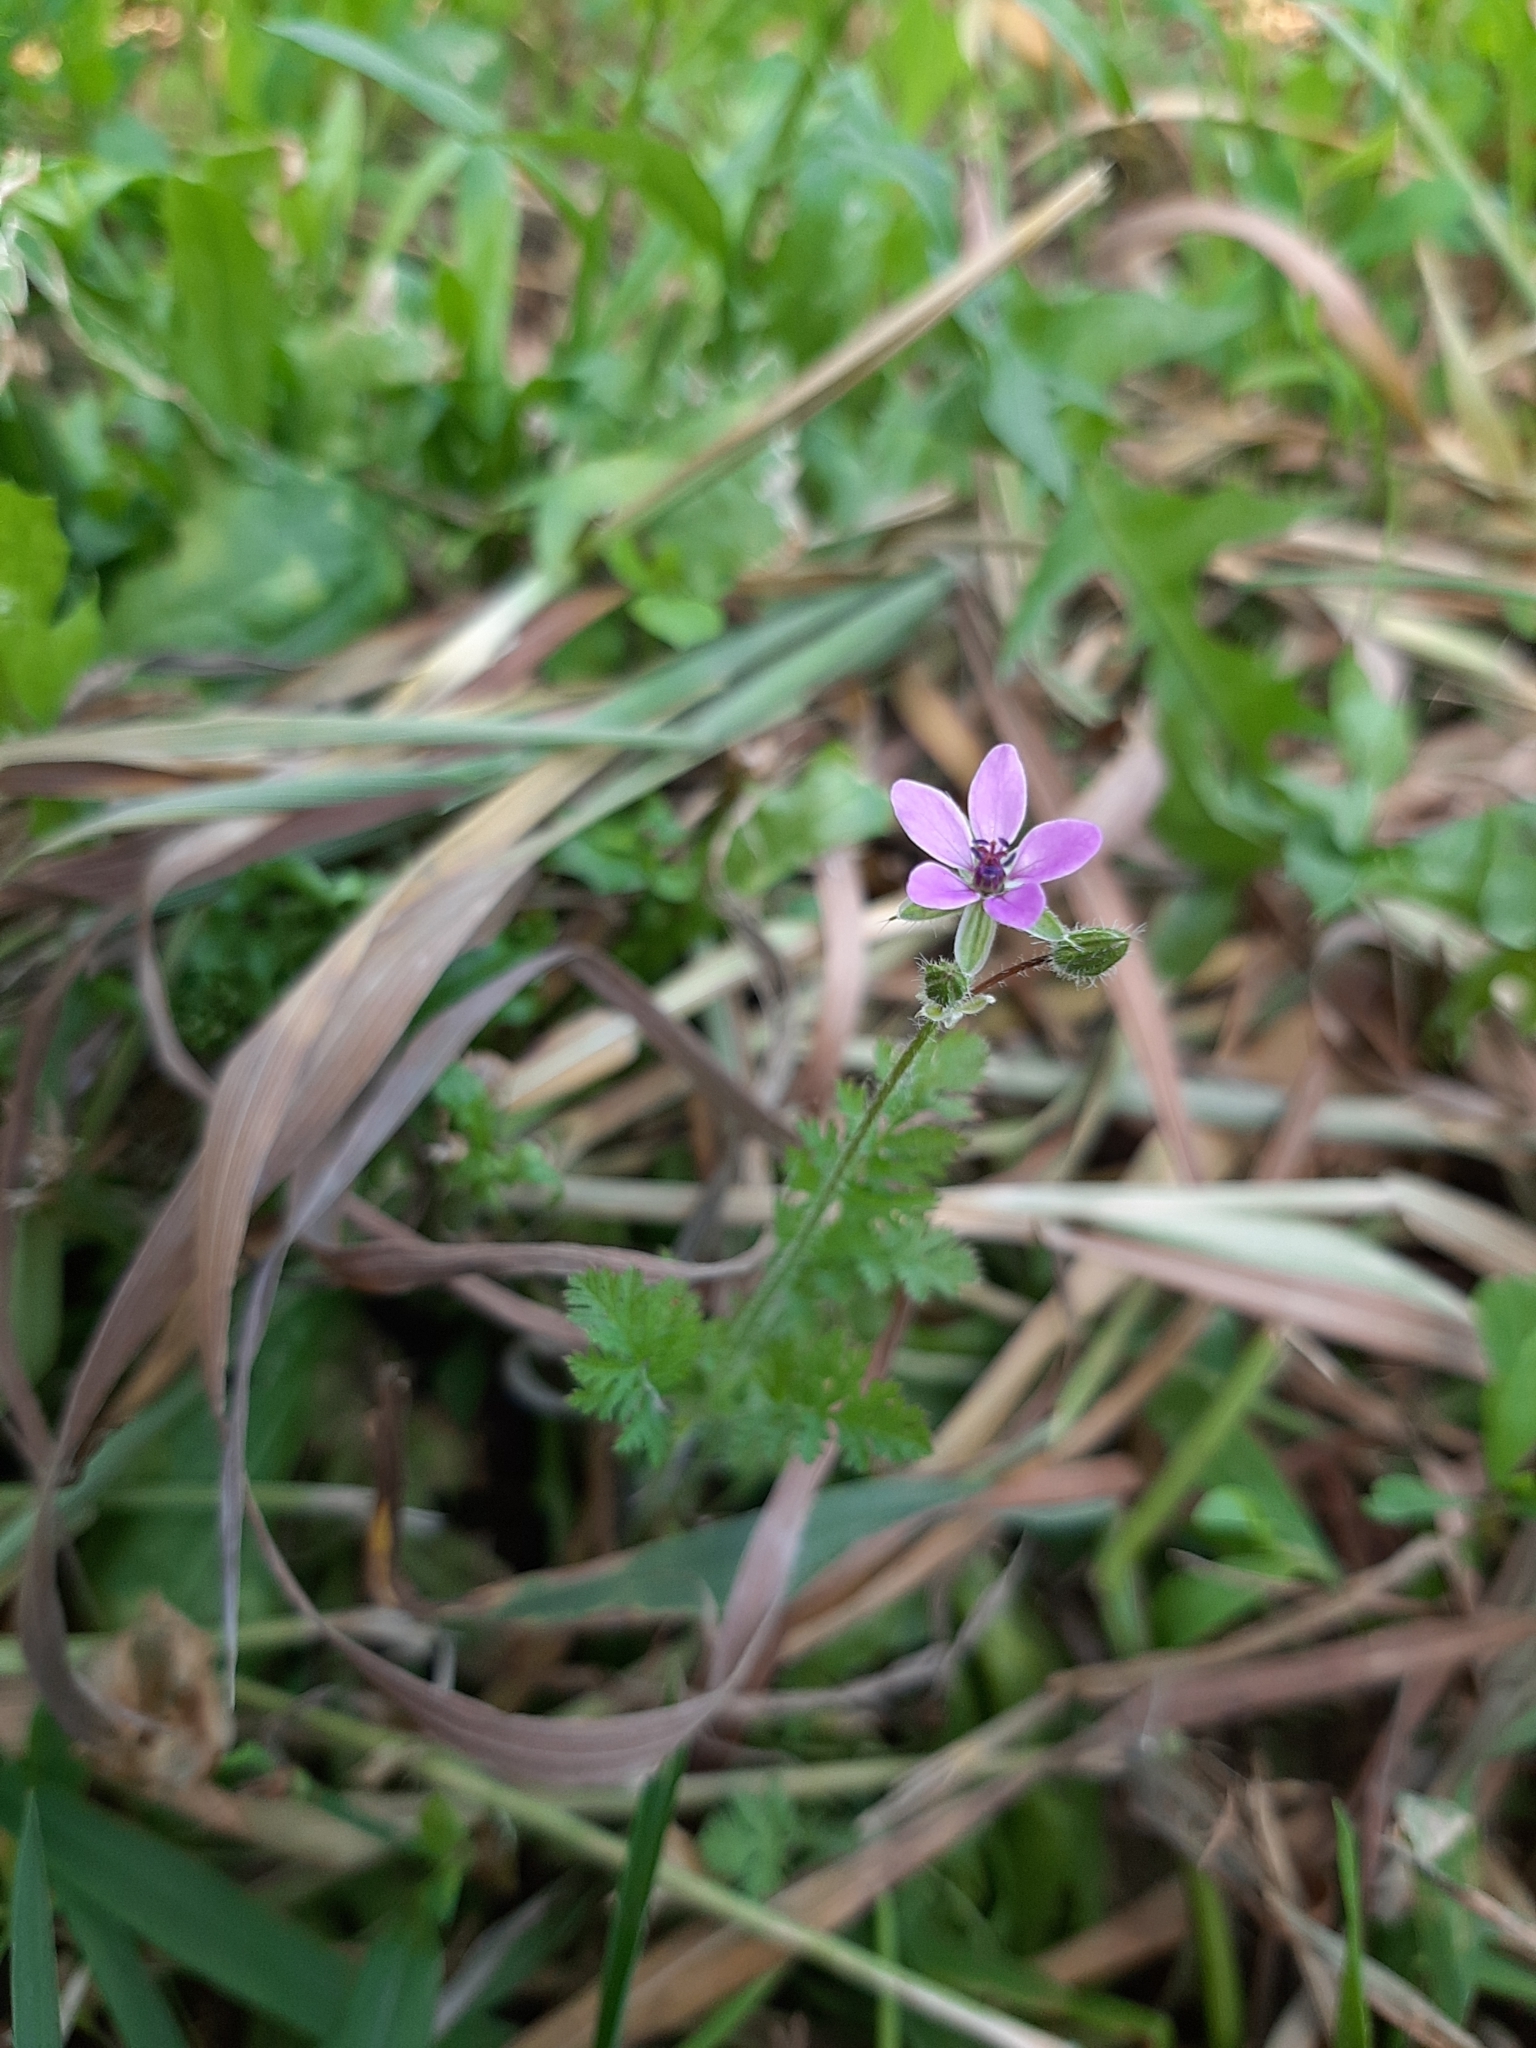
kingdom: Plantae
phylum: Tracheophyta
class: Magnoliopsida
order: Geraniales
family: Geraniaceae
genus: Erodium
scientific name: Erodium cicutarium
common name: Common stork's-bill
